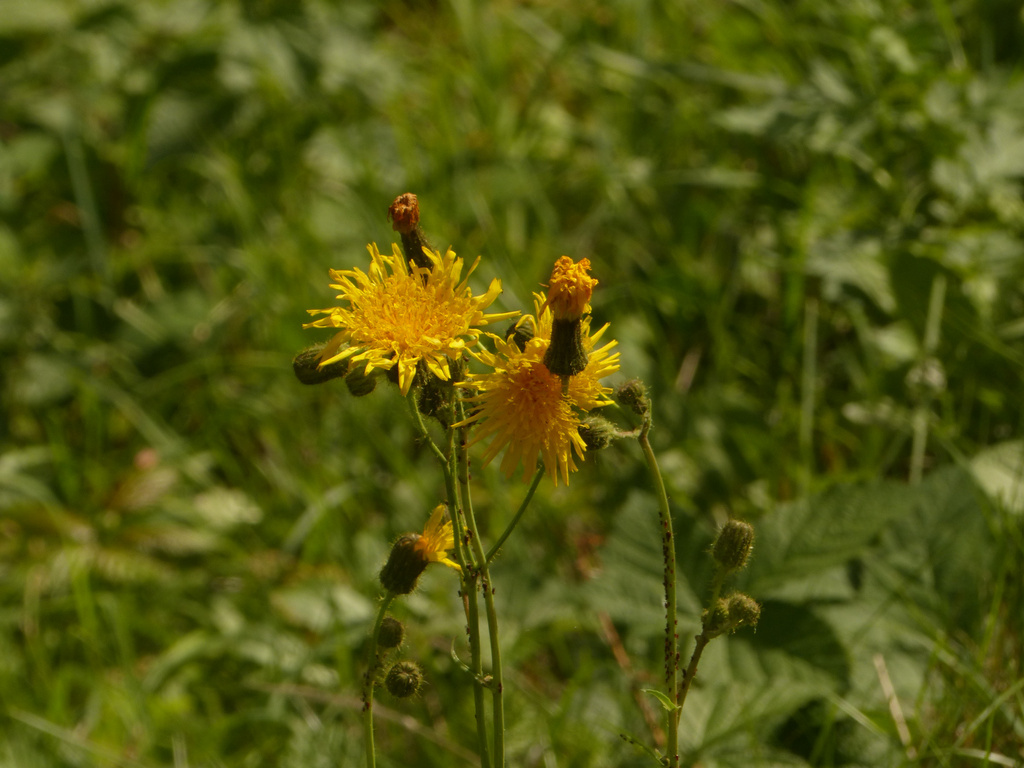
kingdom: Plantae
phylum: Tracheophyta
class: Magnoliopsida
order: Asterales
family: Asteraceae
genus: Sonchus
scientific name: Sonchus arvensis
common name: Perennial sow-thistle
